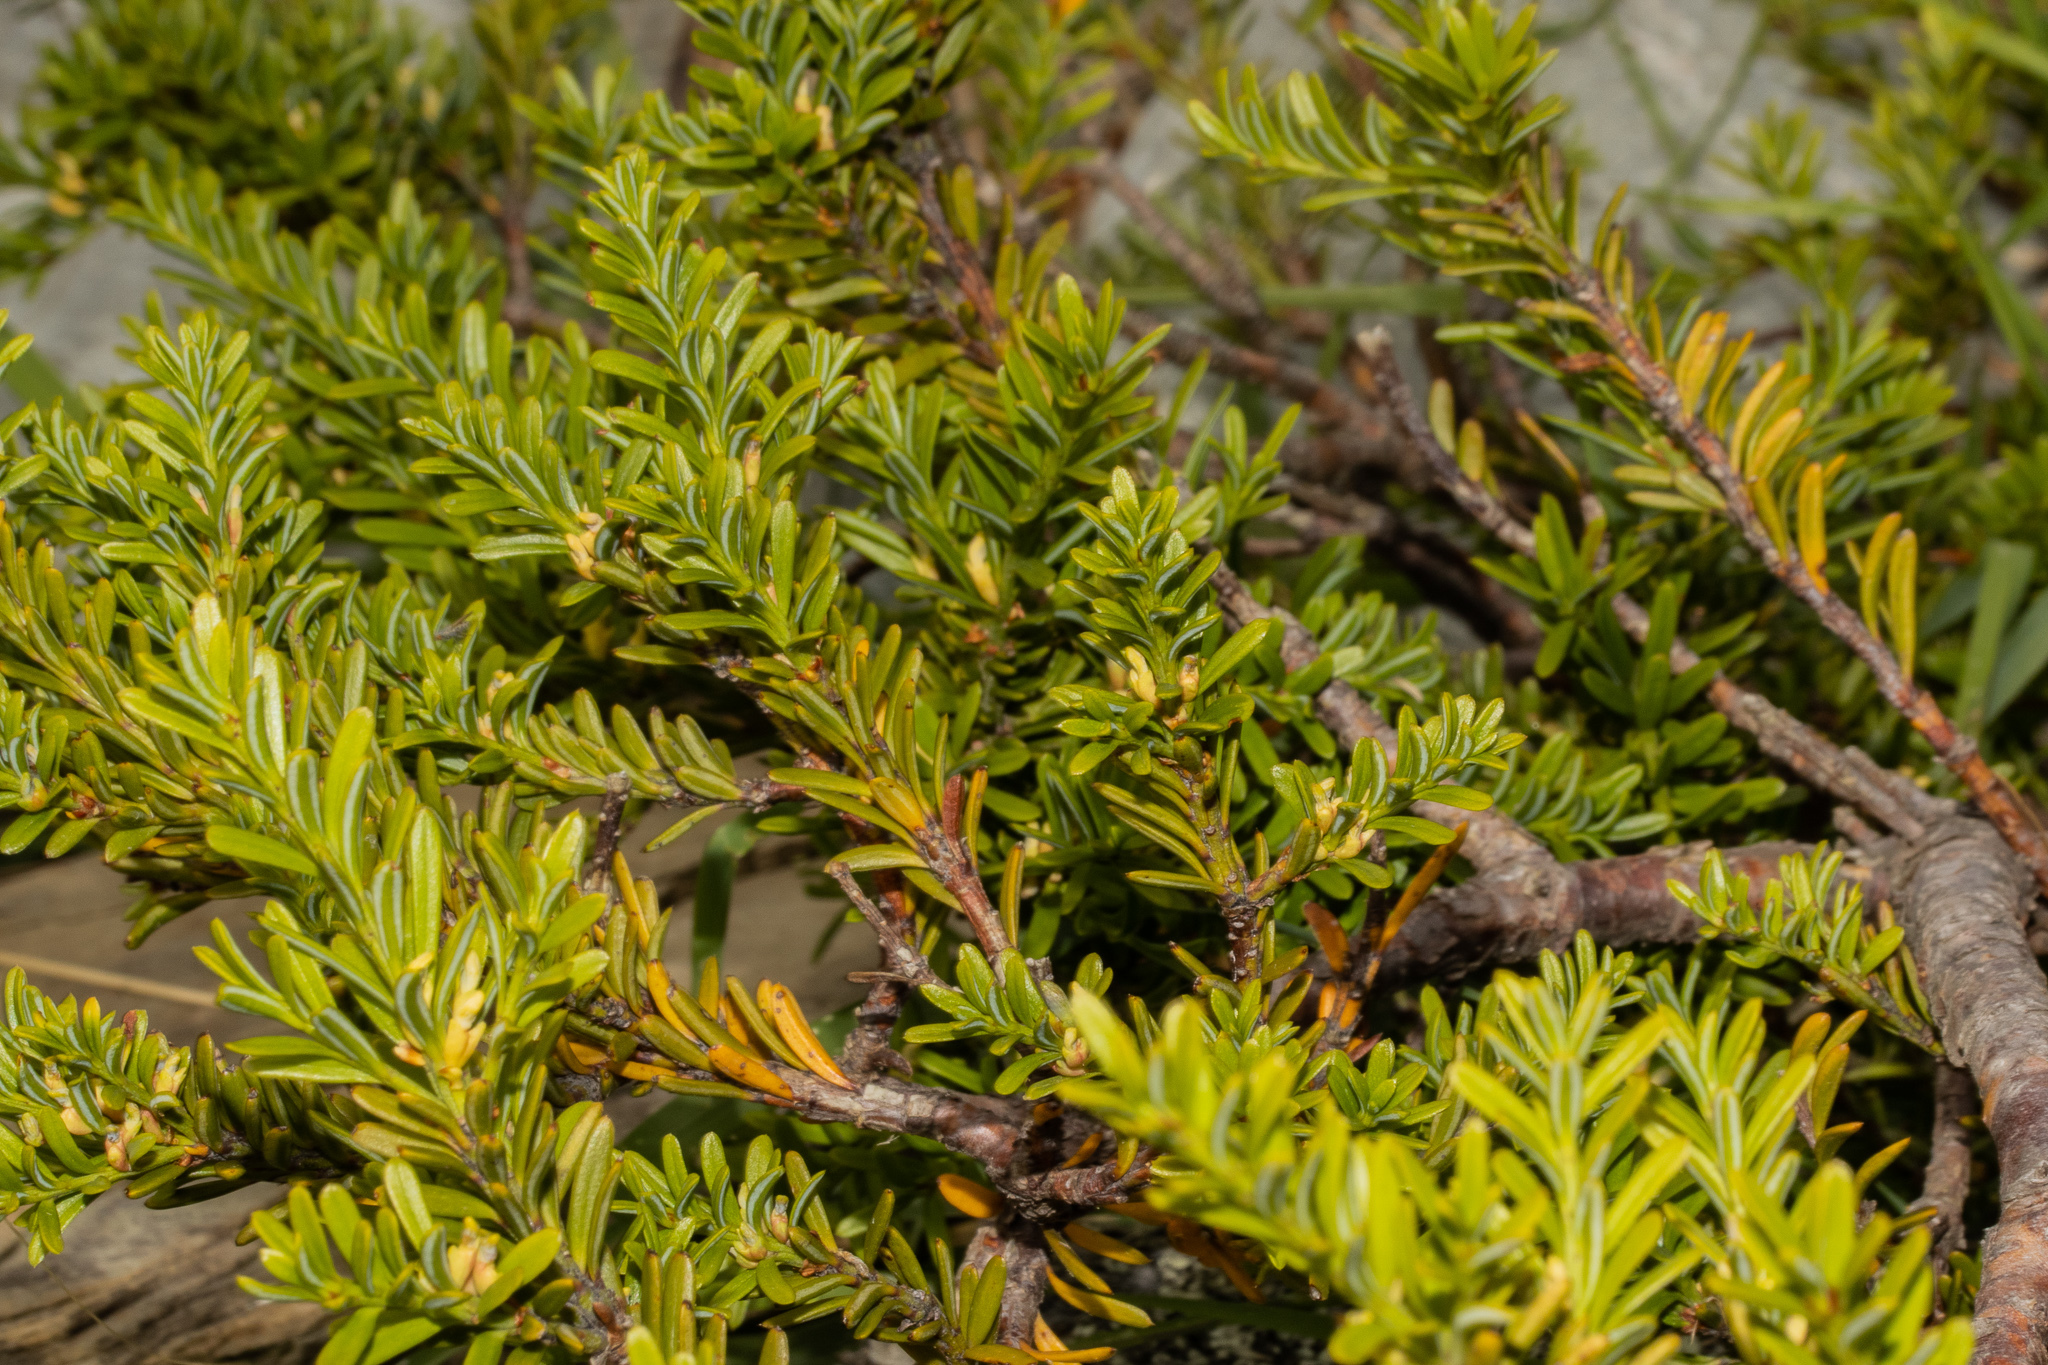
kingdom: Plantae
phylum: Tracheophyta
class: Pinopsida
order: Pinales
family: Podocarpaceae
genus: Podocarpus
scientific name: Podocarpus nivalis
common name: Alpine totara
